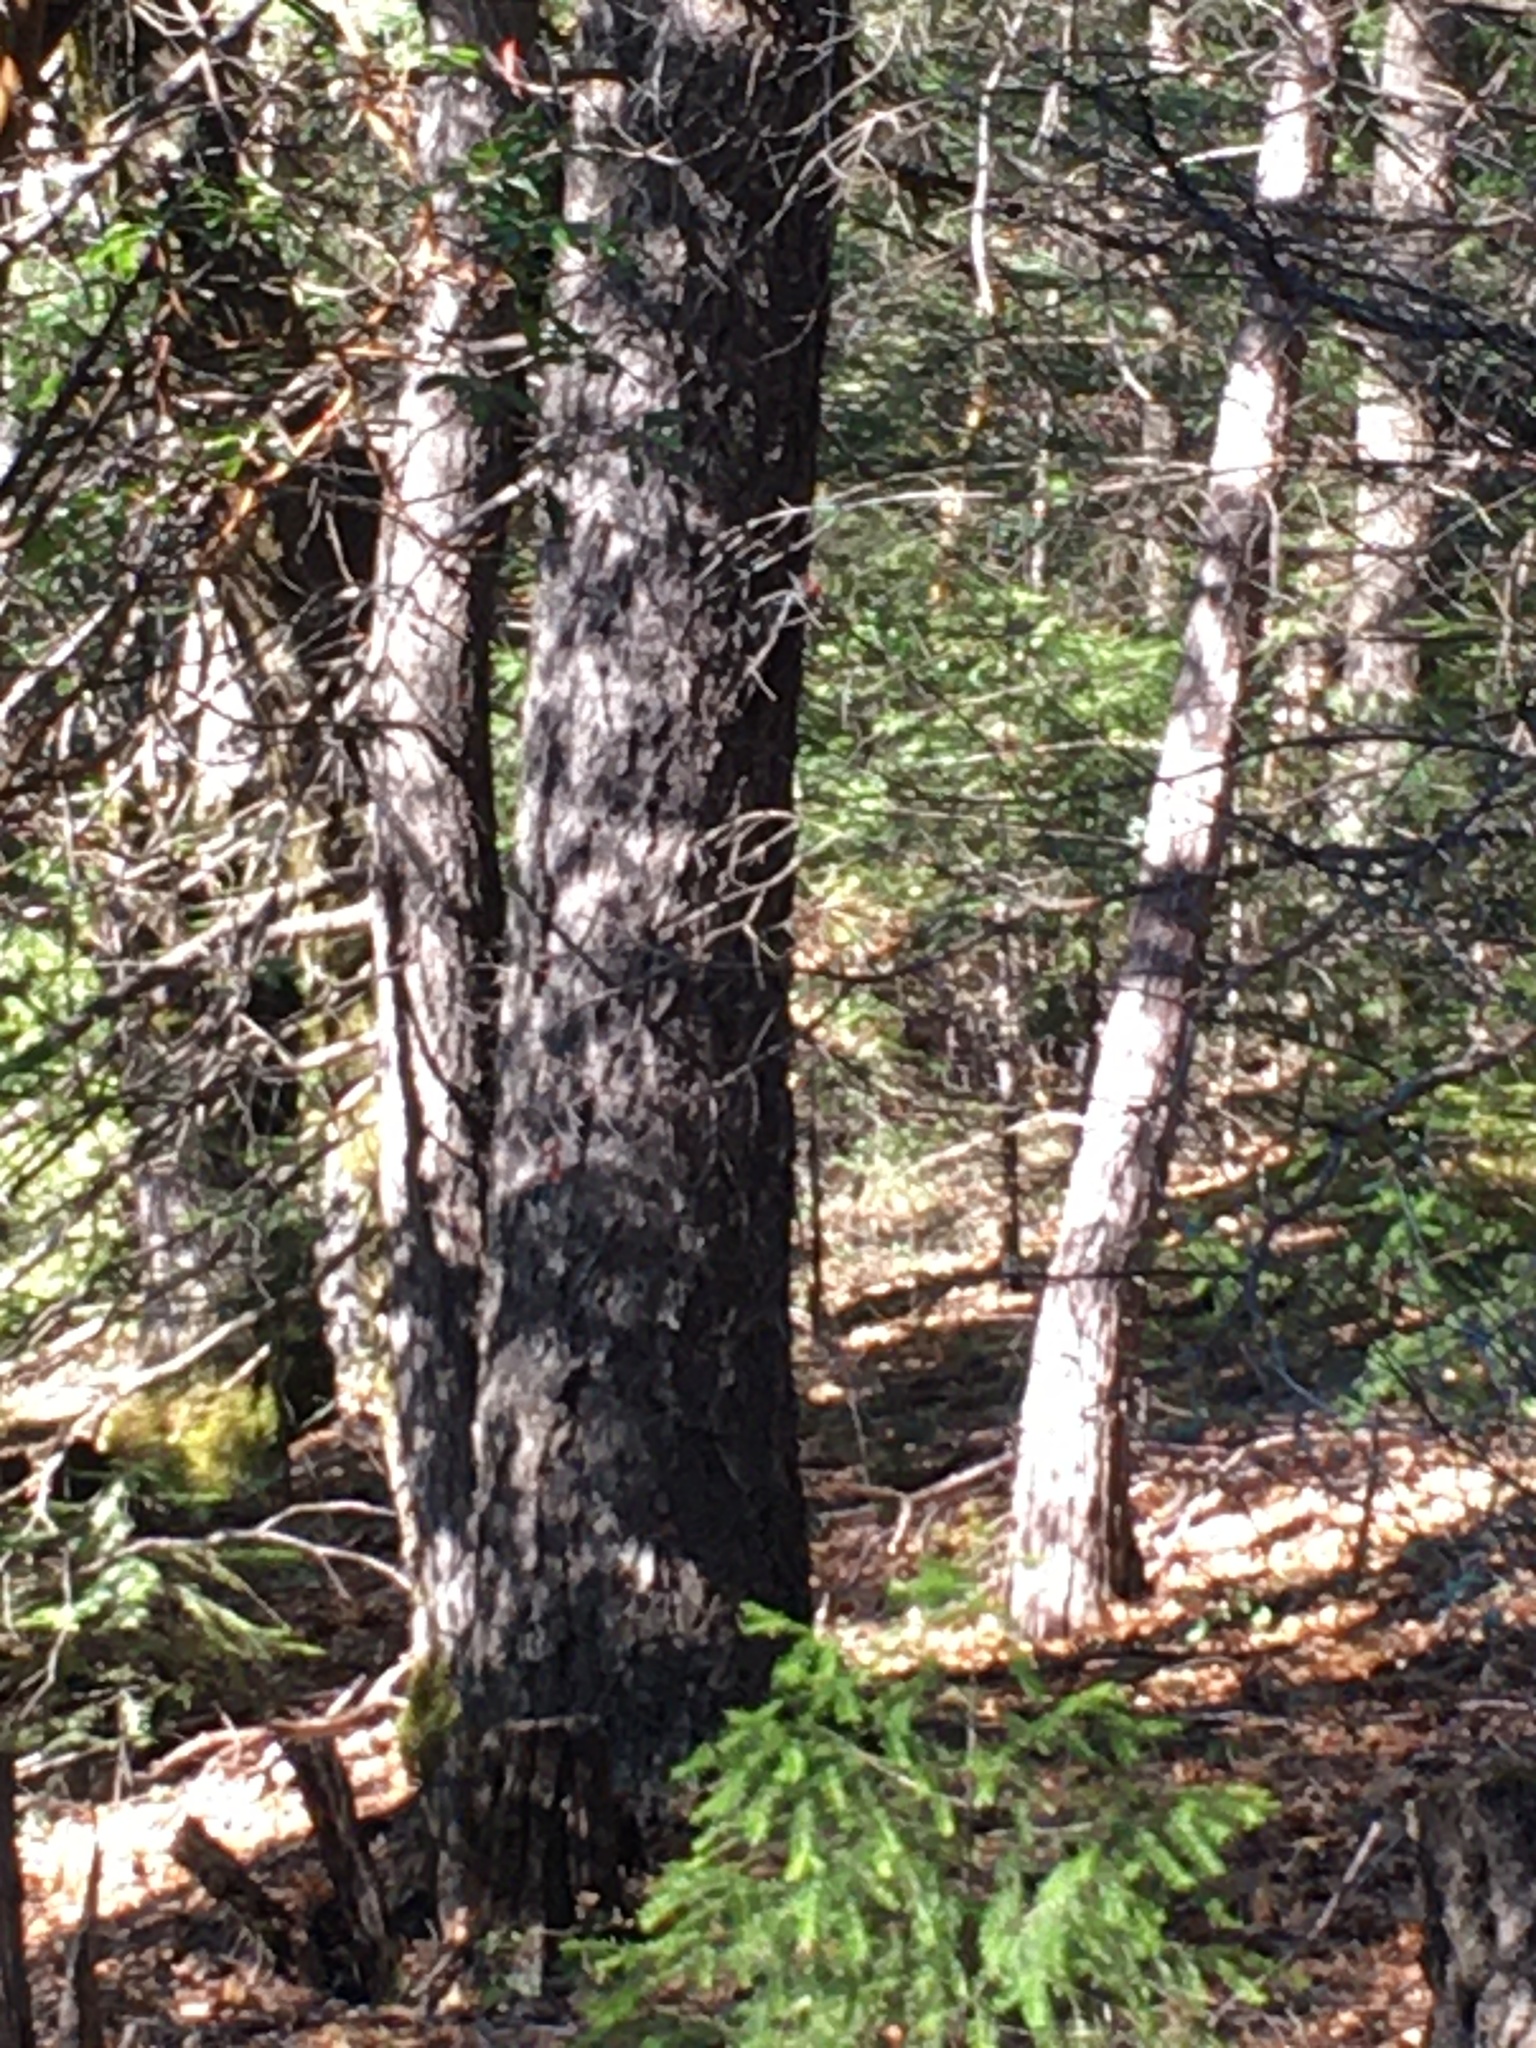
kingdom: Animalia
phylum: Chordata
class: Aves
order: Piciformes
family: Picidae
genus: Dryocopus
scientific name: Dryocopus pileatus
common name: Pileated woodpecker
